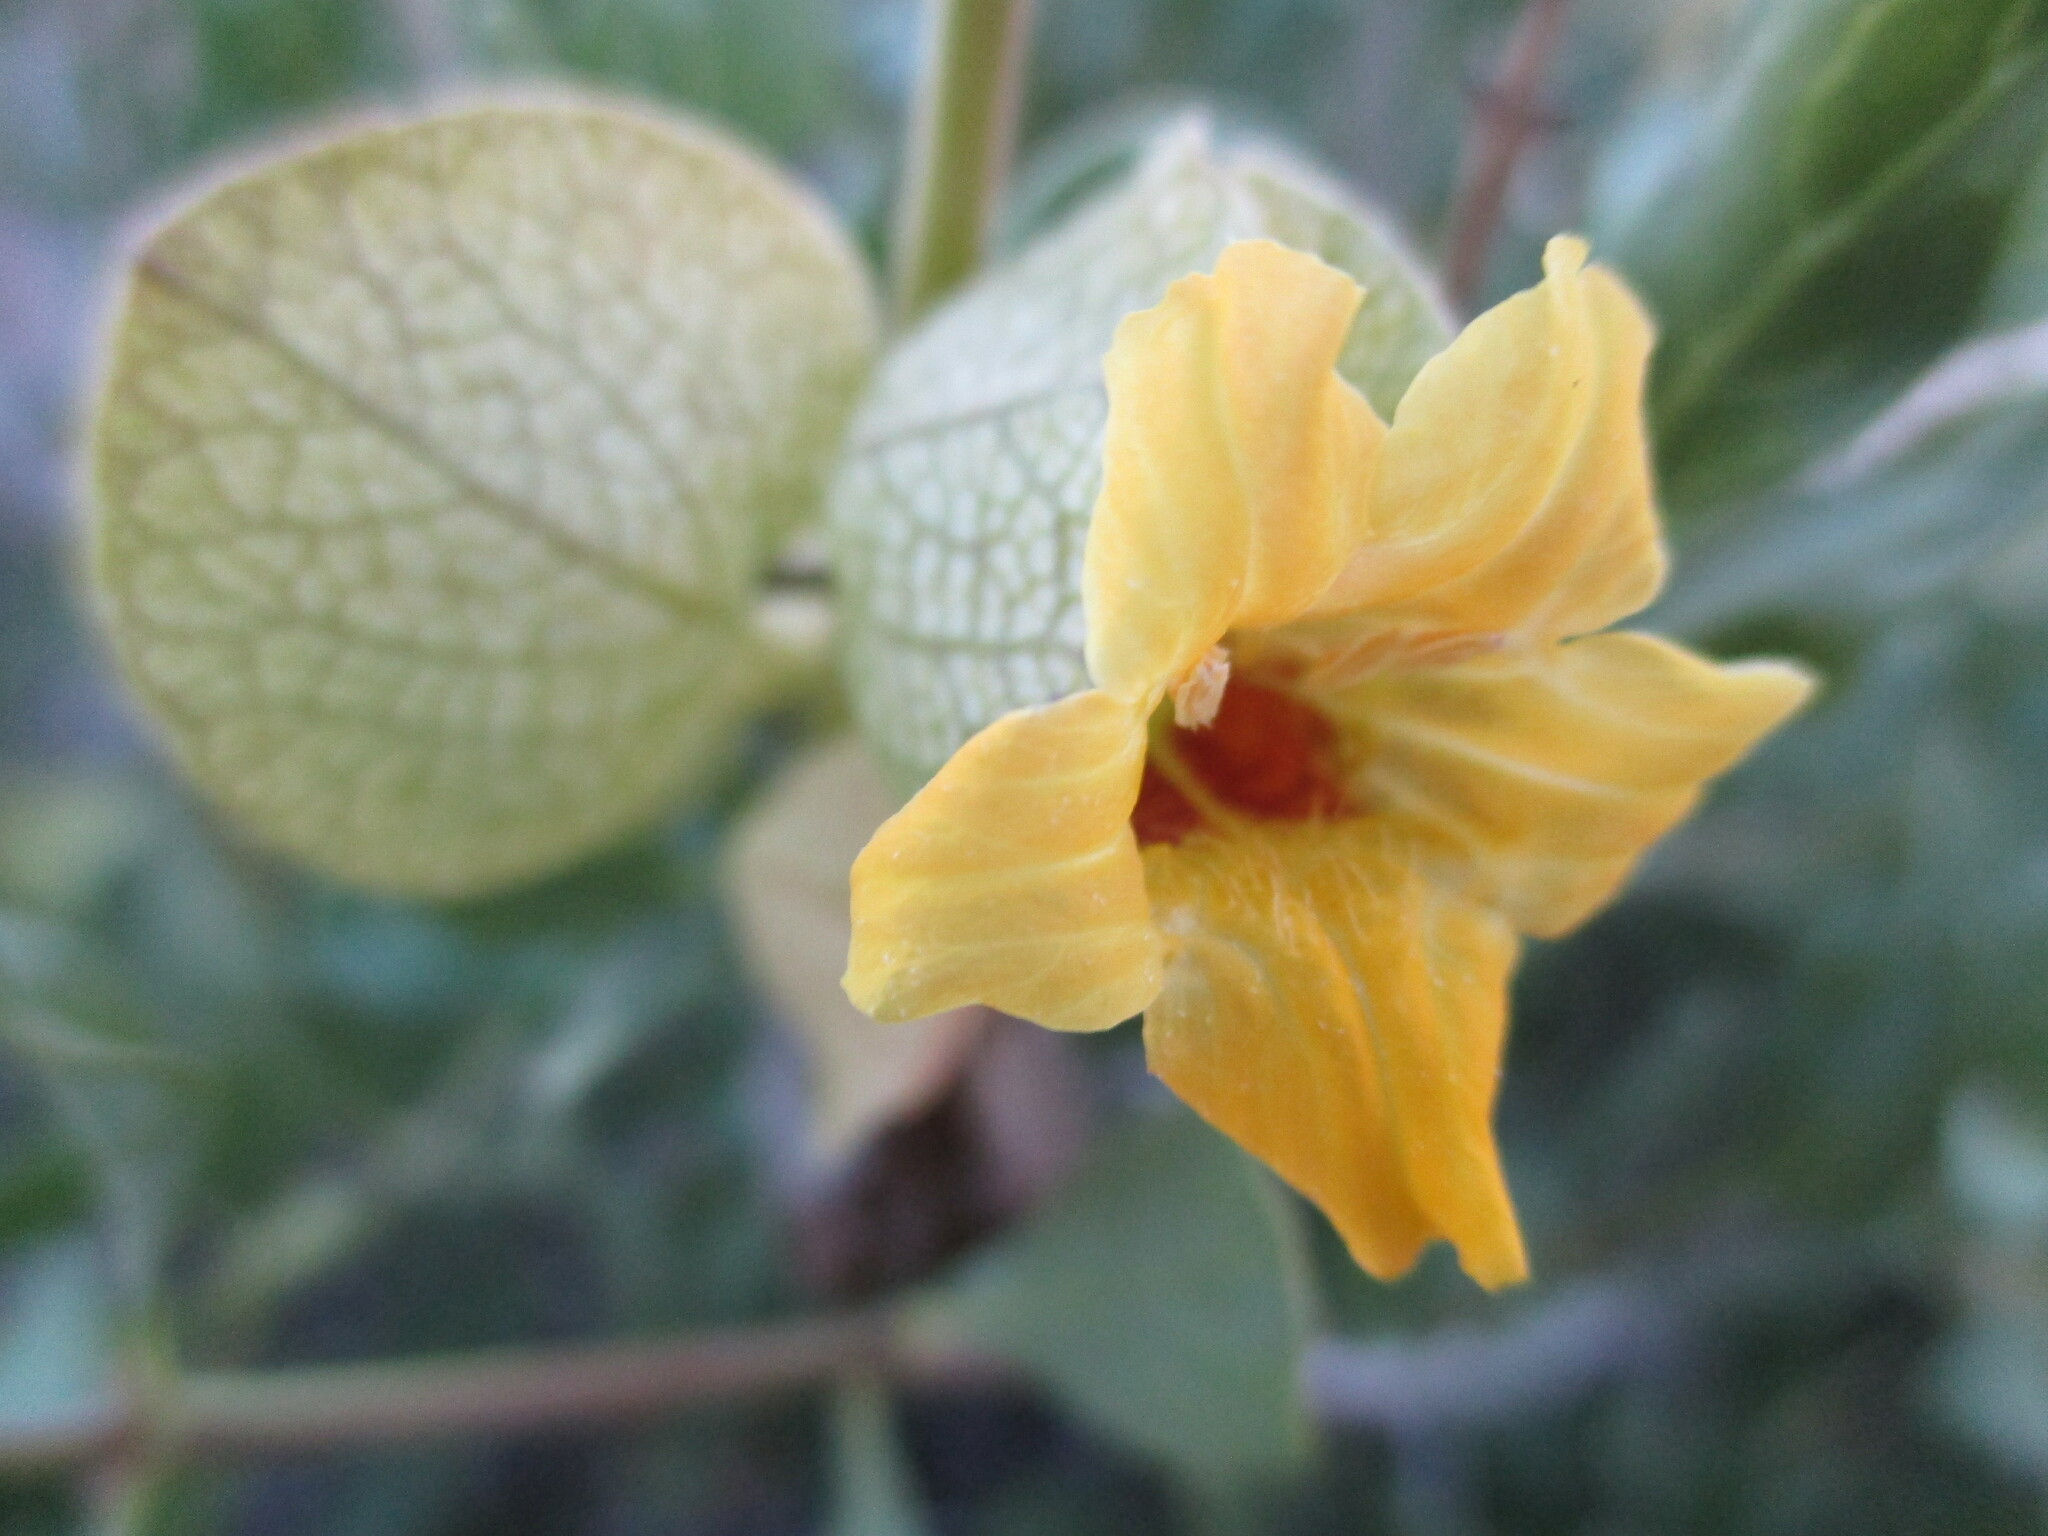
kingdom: Plantae
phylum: Tracheophyta
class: Magnoliopsida
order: Lamiales
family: Acanthaceae
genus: Petalidium
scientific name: Petalidium giessii
